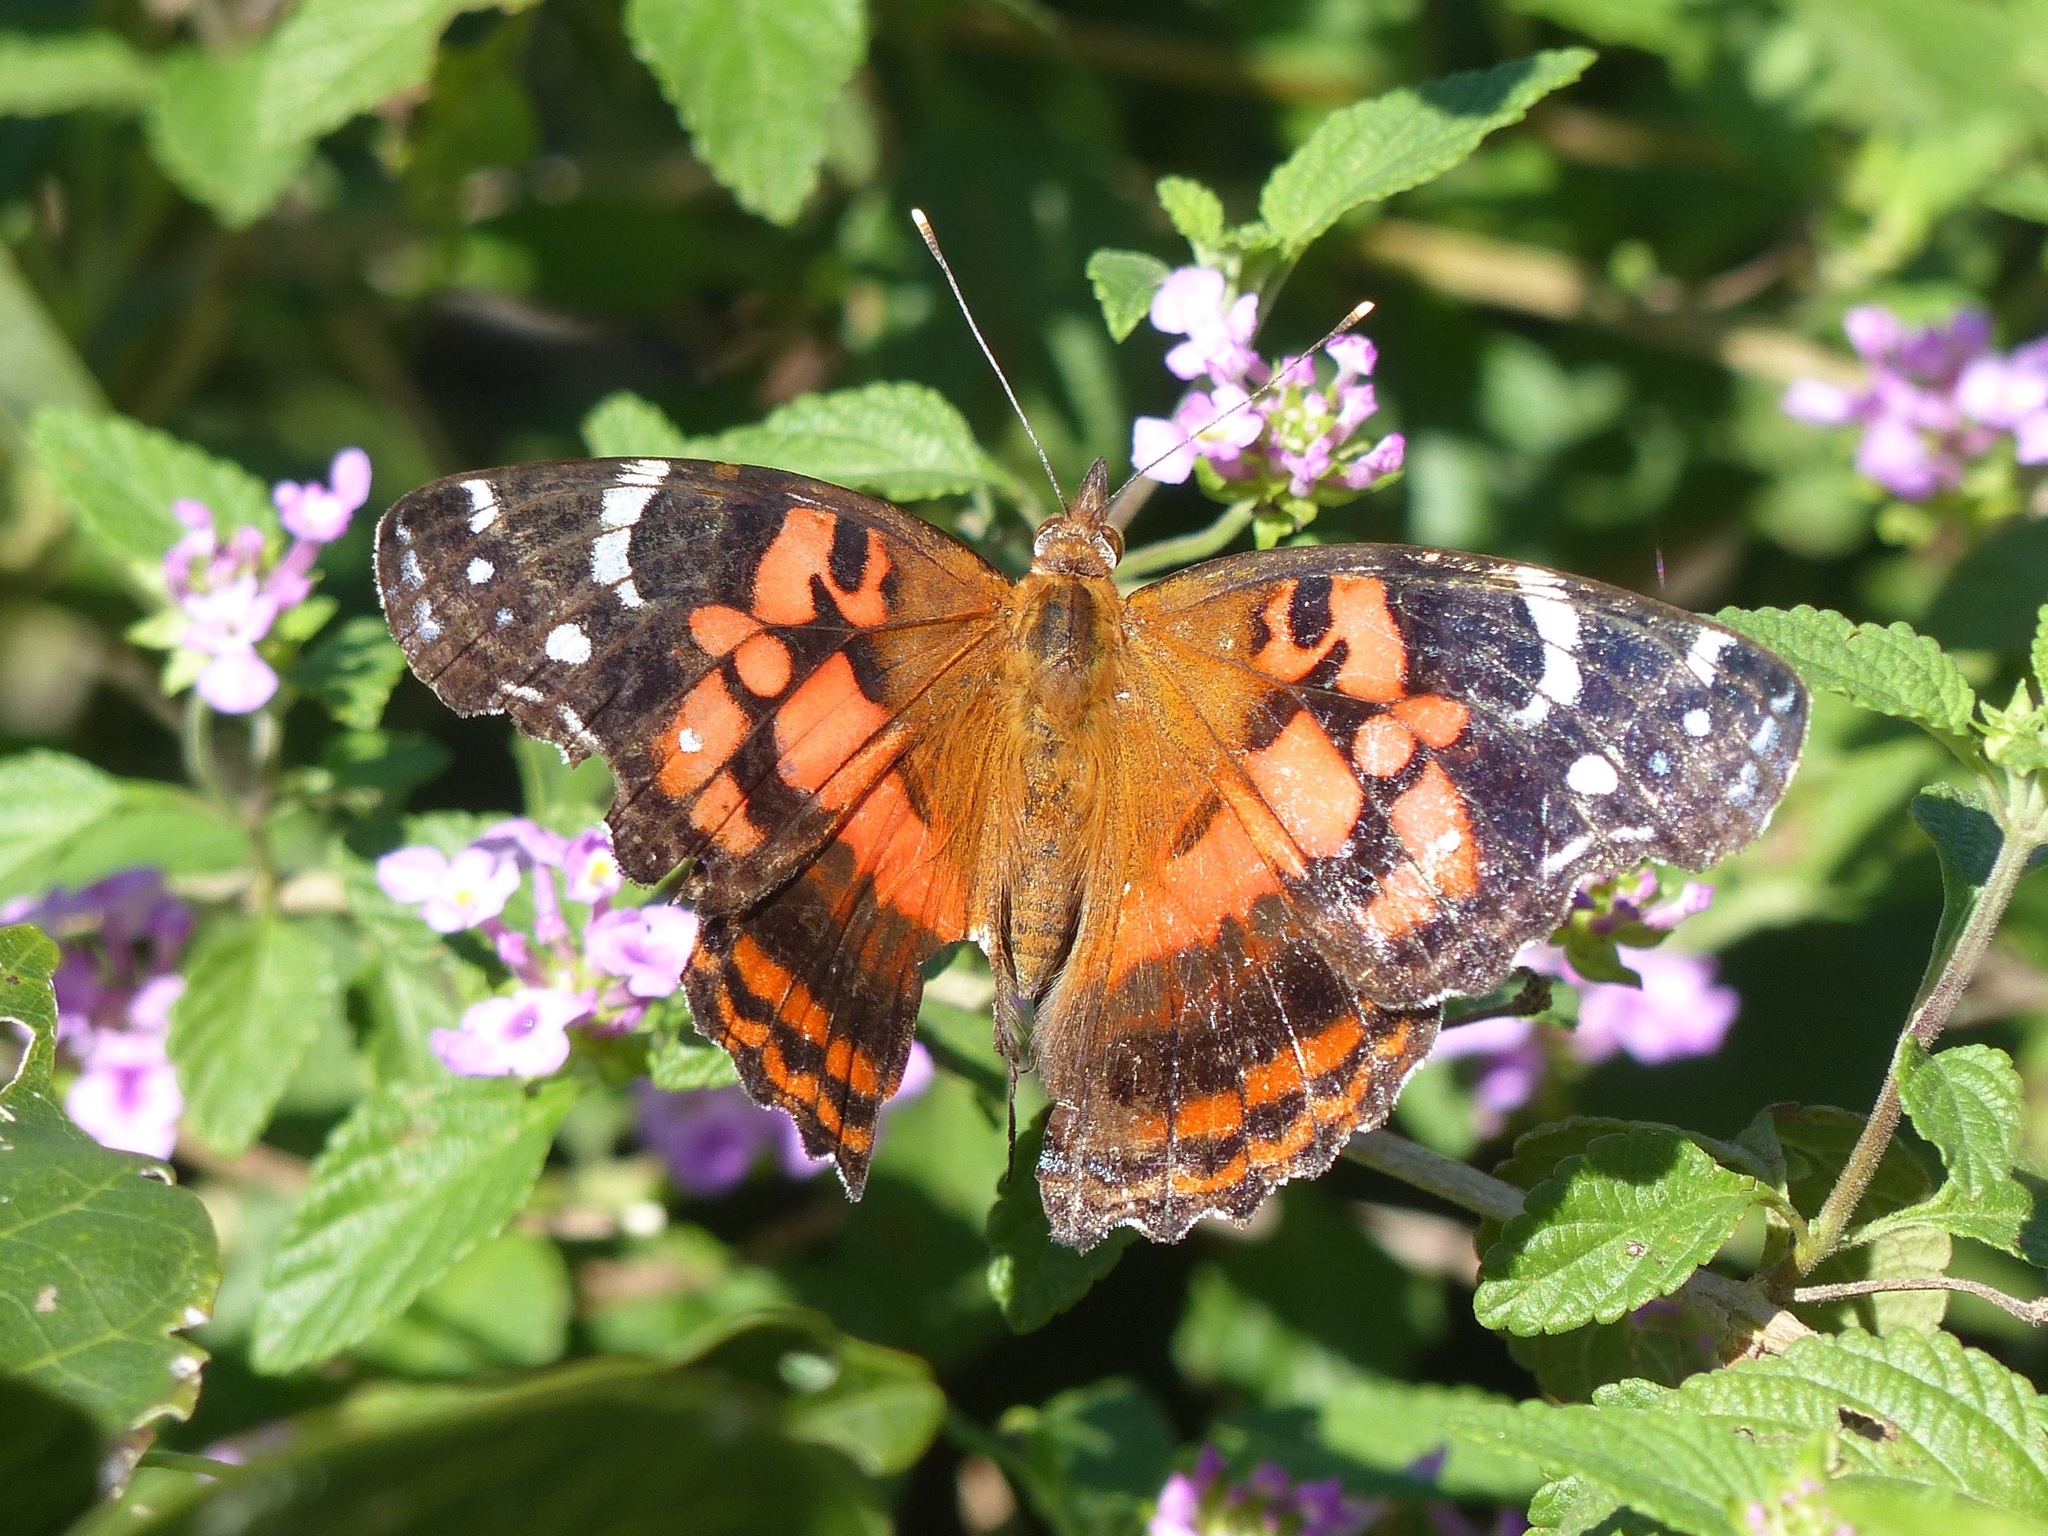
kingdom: Animalia
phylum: Arthropoda
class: Insecta
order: Lepidoptera
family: Nymphalidae
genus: Vanessa
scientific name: Vanessa myrinna
